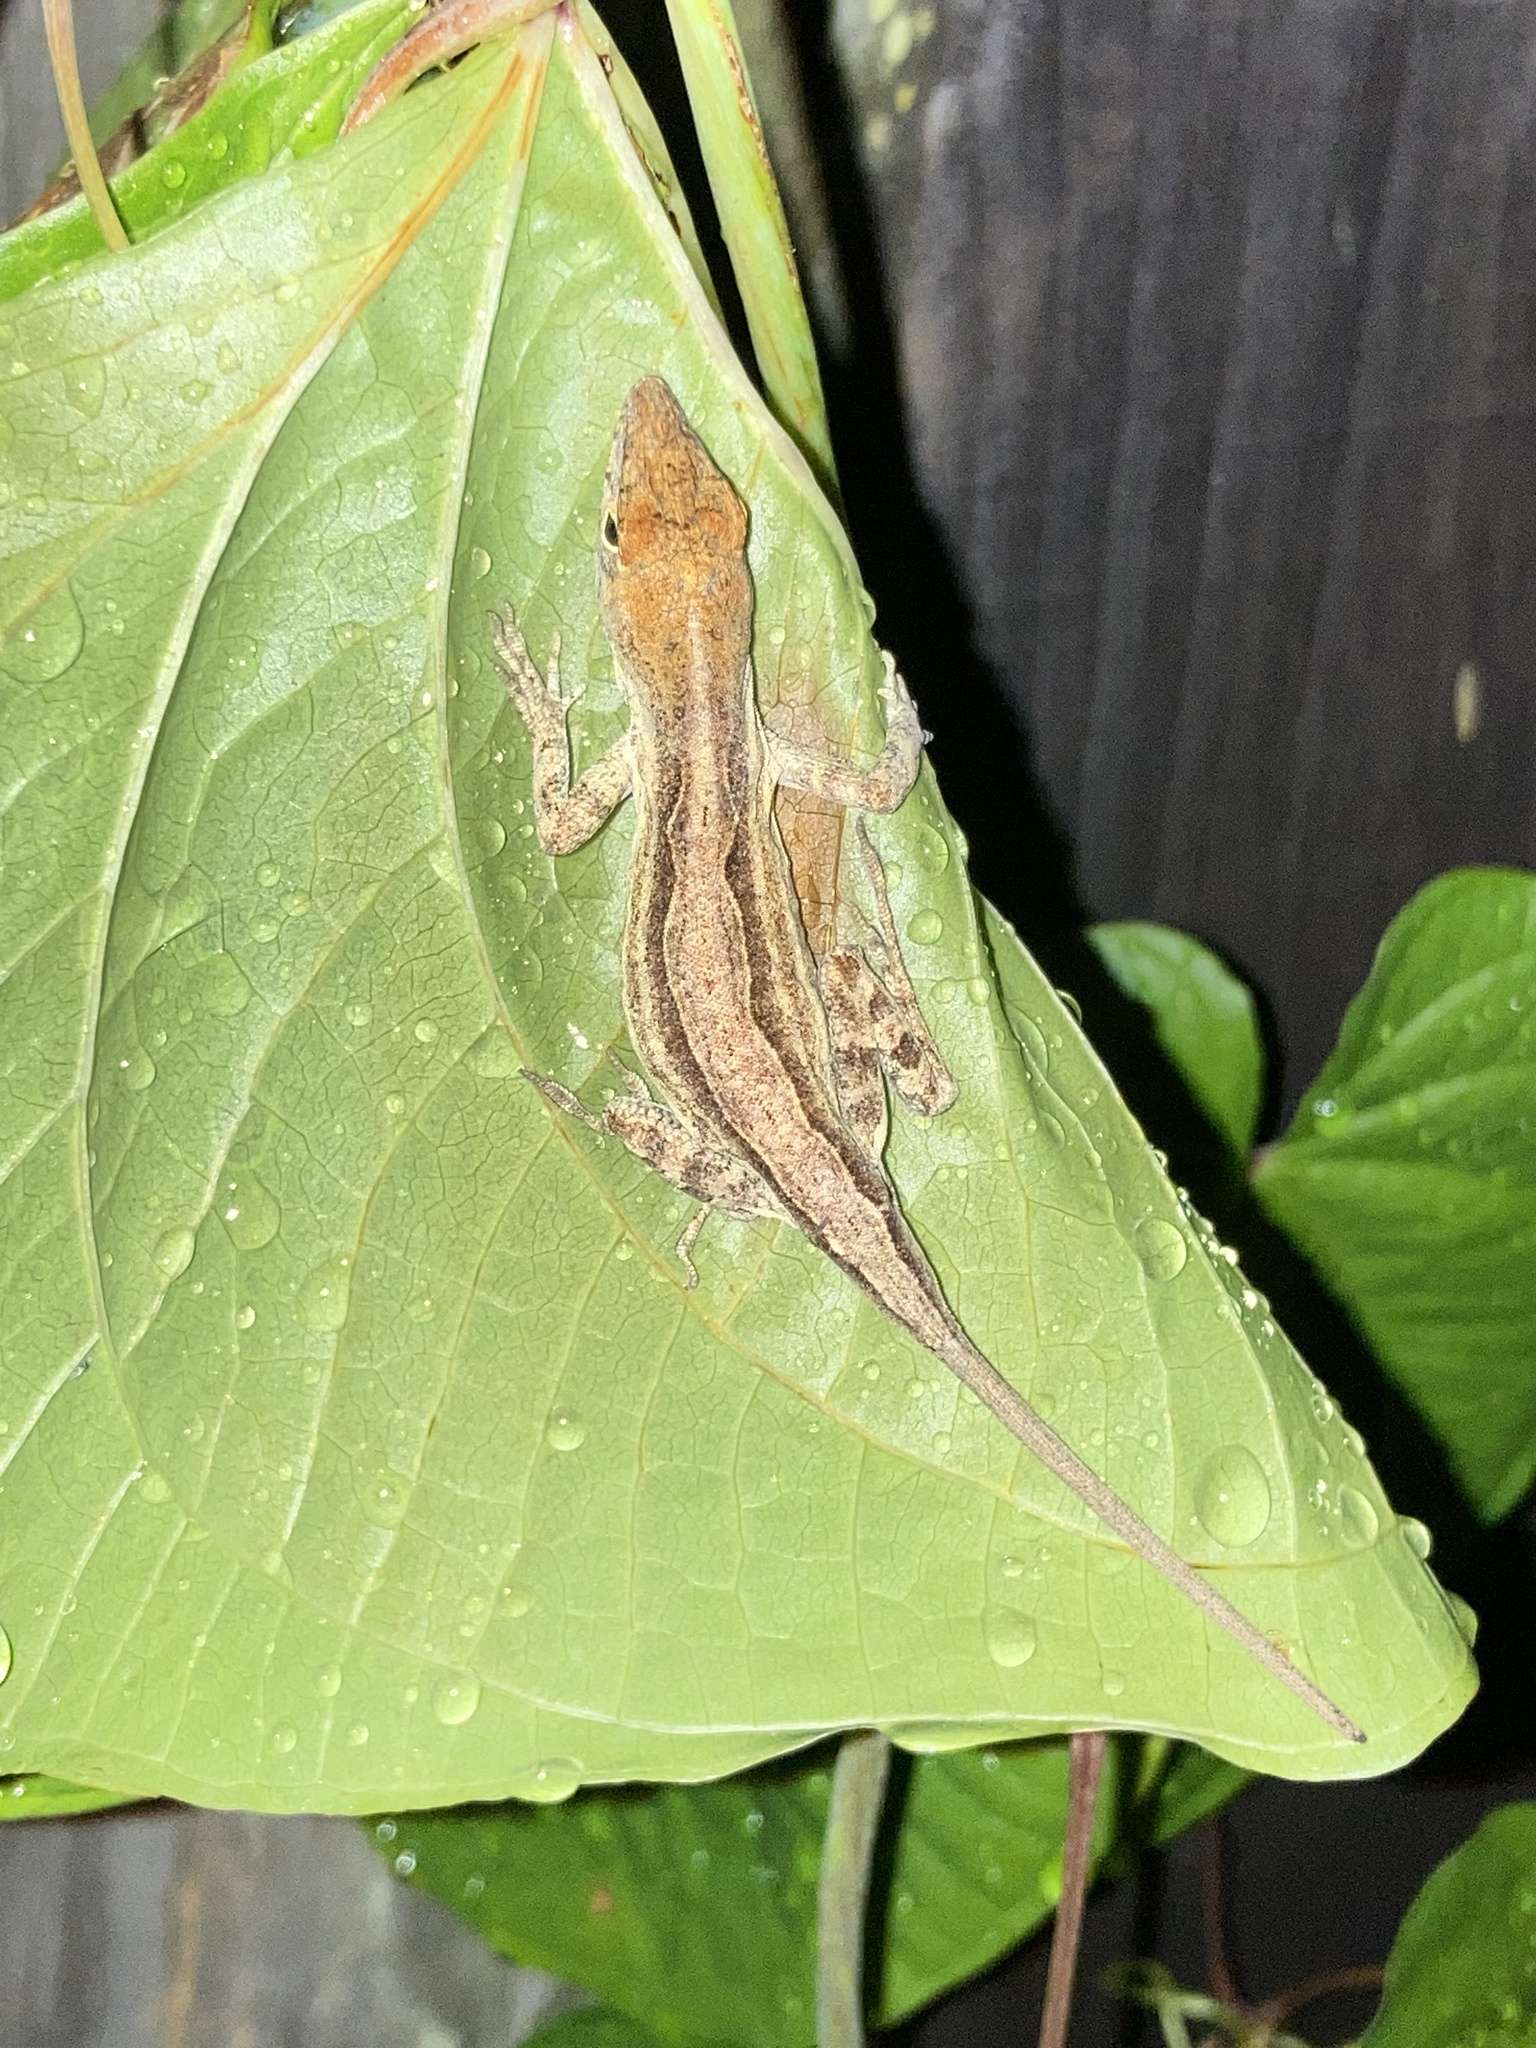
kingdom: Animalia
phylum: Chordata
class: Squamata
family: Dactyloidae
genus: Anolis
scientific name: Anolis sagrei
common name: Brown anole
